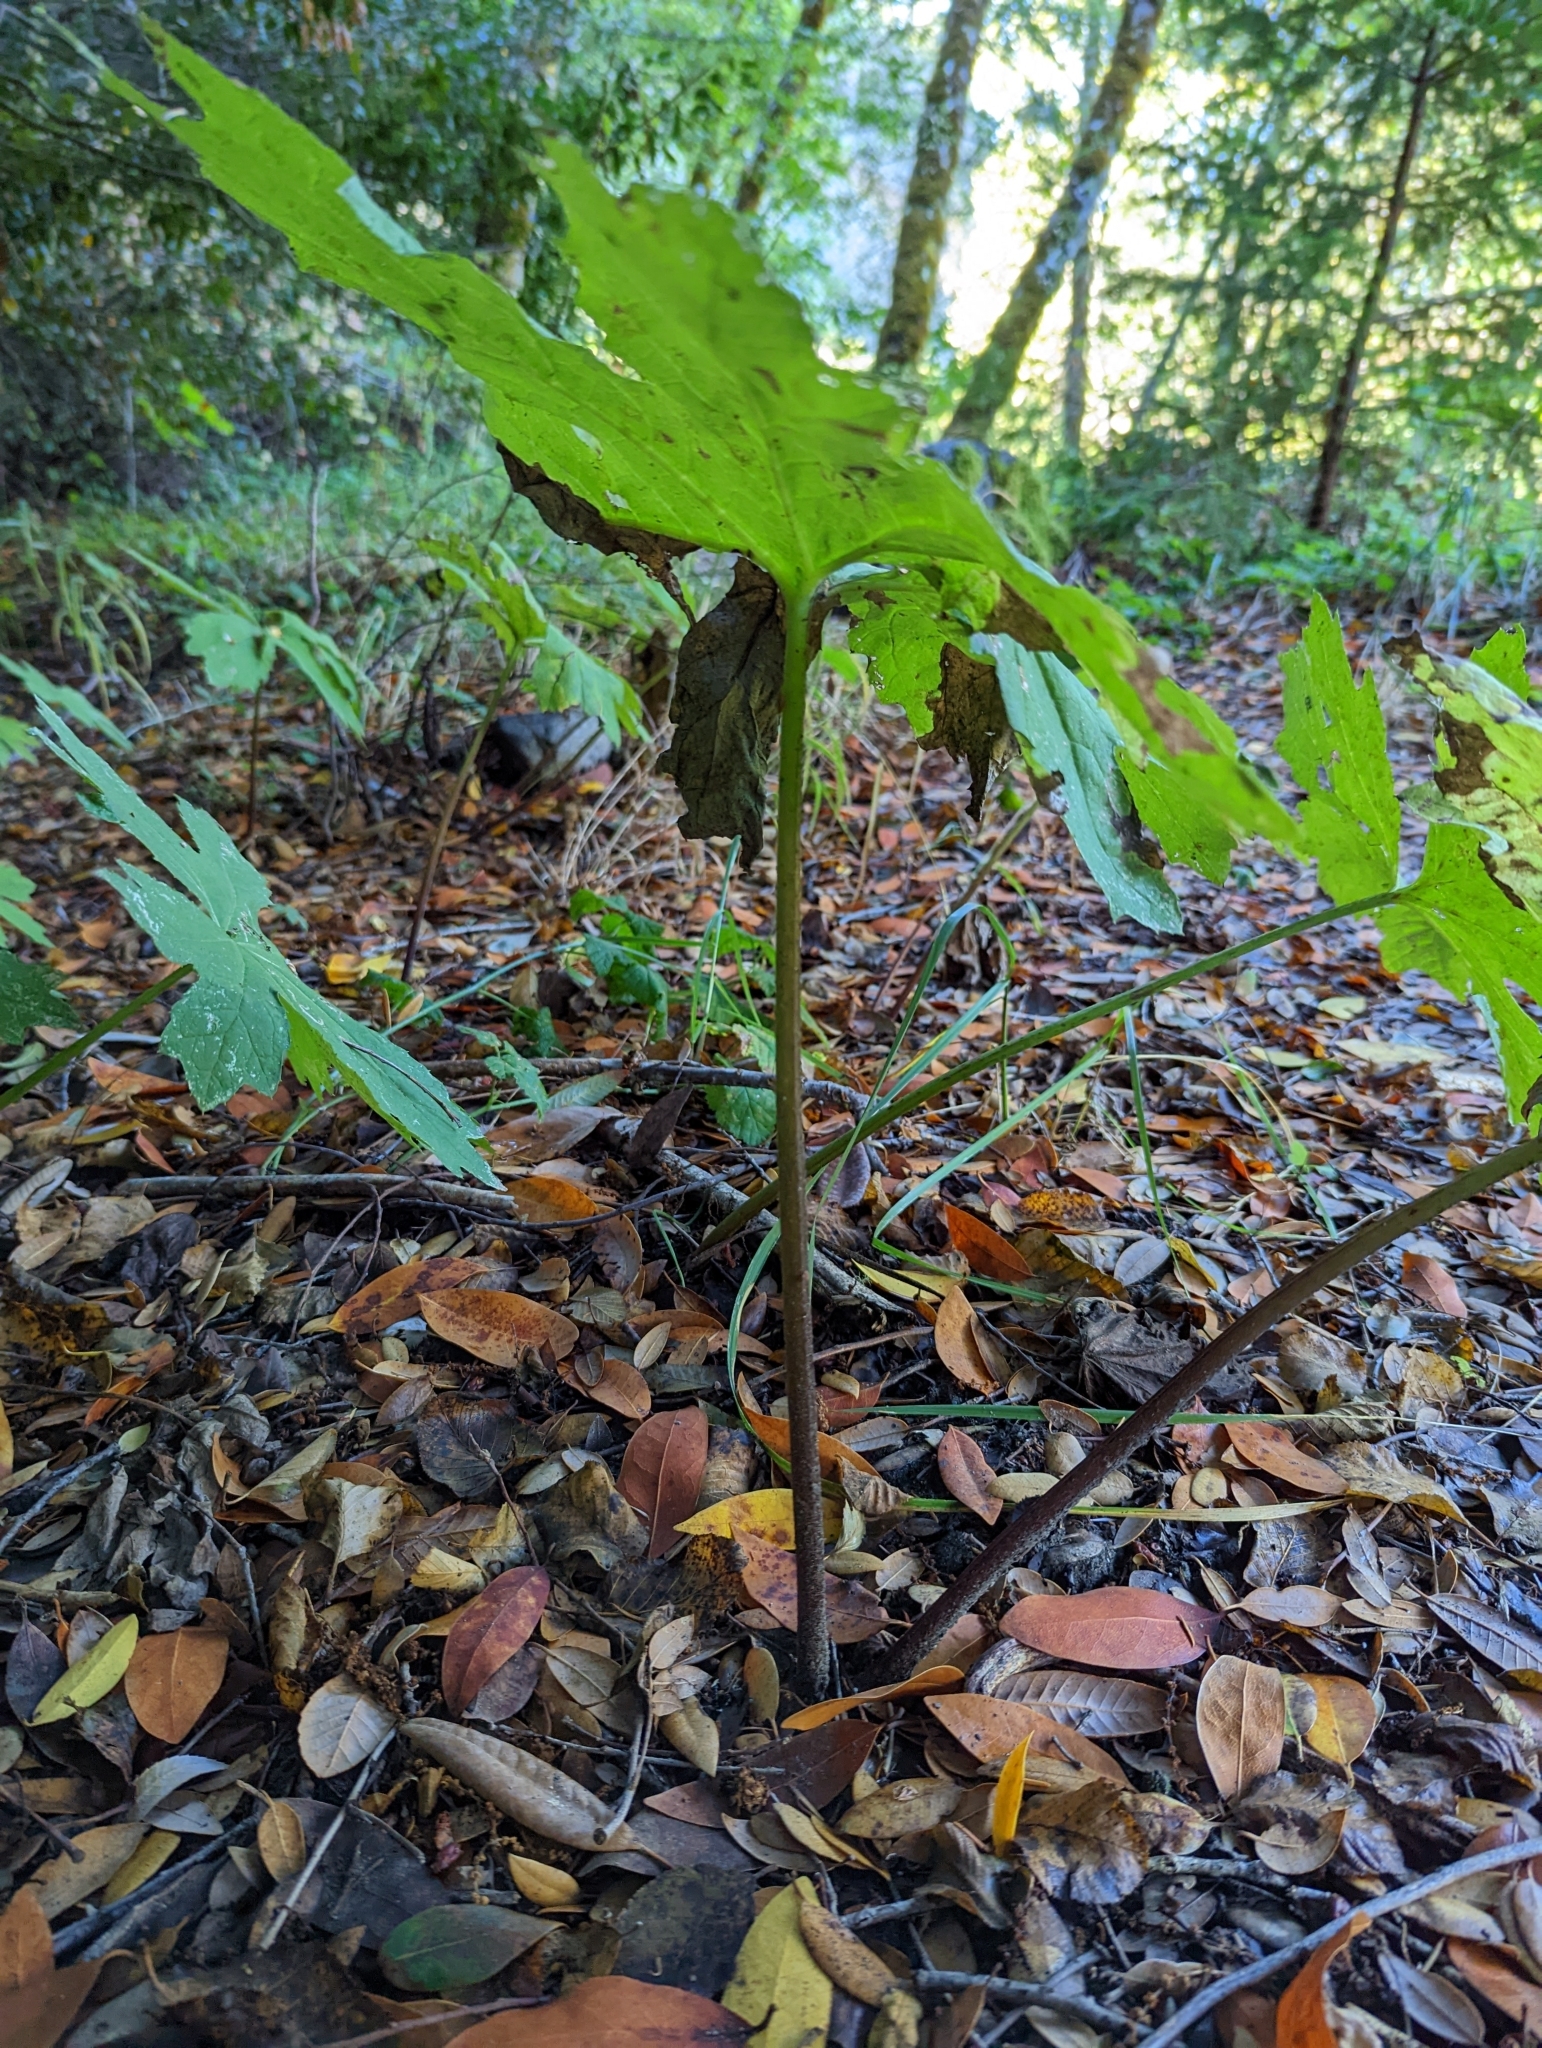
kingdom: Plantae
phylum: Tracheophyta
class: Magnoliopsida
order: Asterales
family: Asteraceae
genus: Petasites
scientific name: Petasites frigidus
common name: Arctic butterbur
